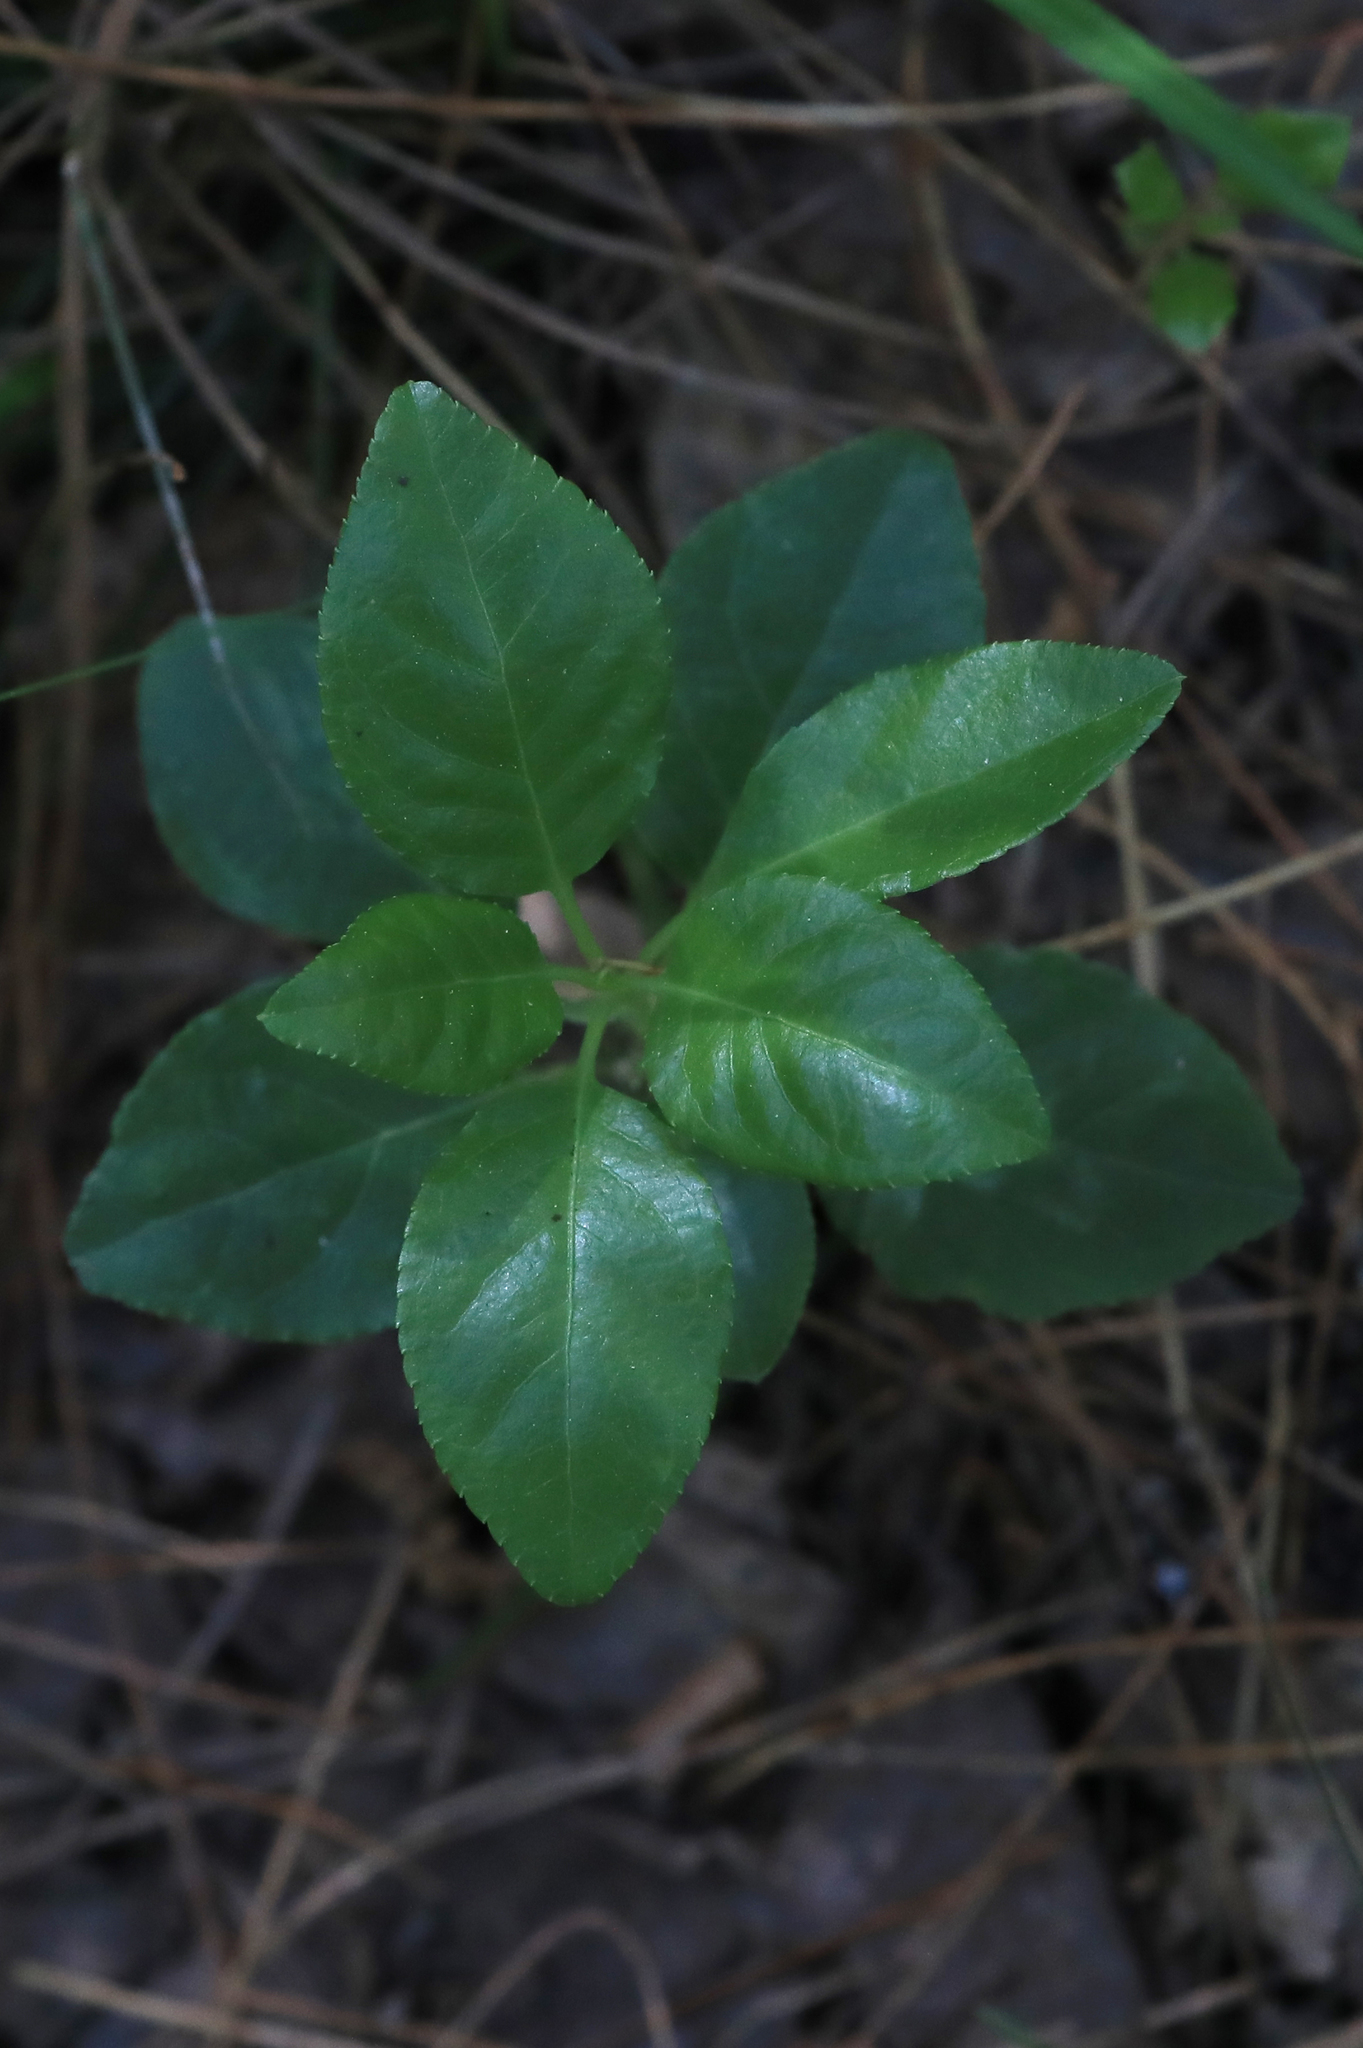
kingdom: Plantae
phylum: Tracheophyta
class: Magnoliopsida
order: Ericales
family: Ericaceae
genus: Orthilia
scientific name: Orthilia secunda
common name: One-sided orthilia
